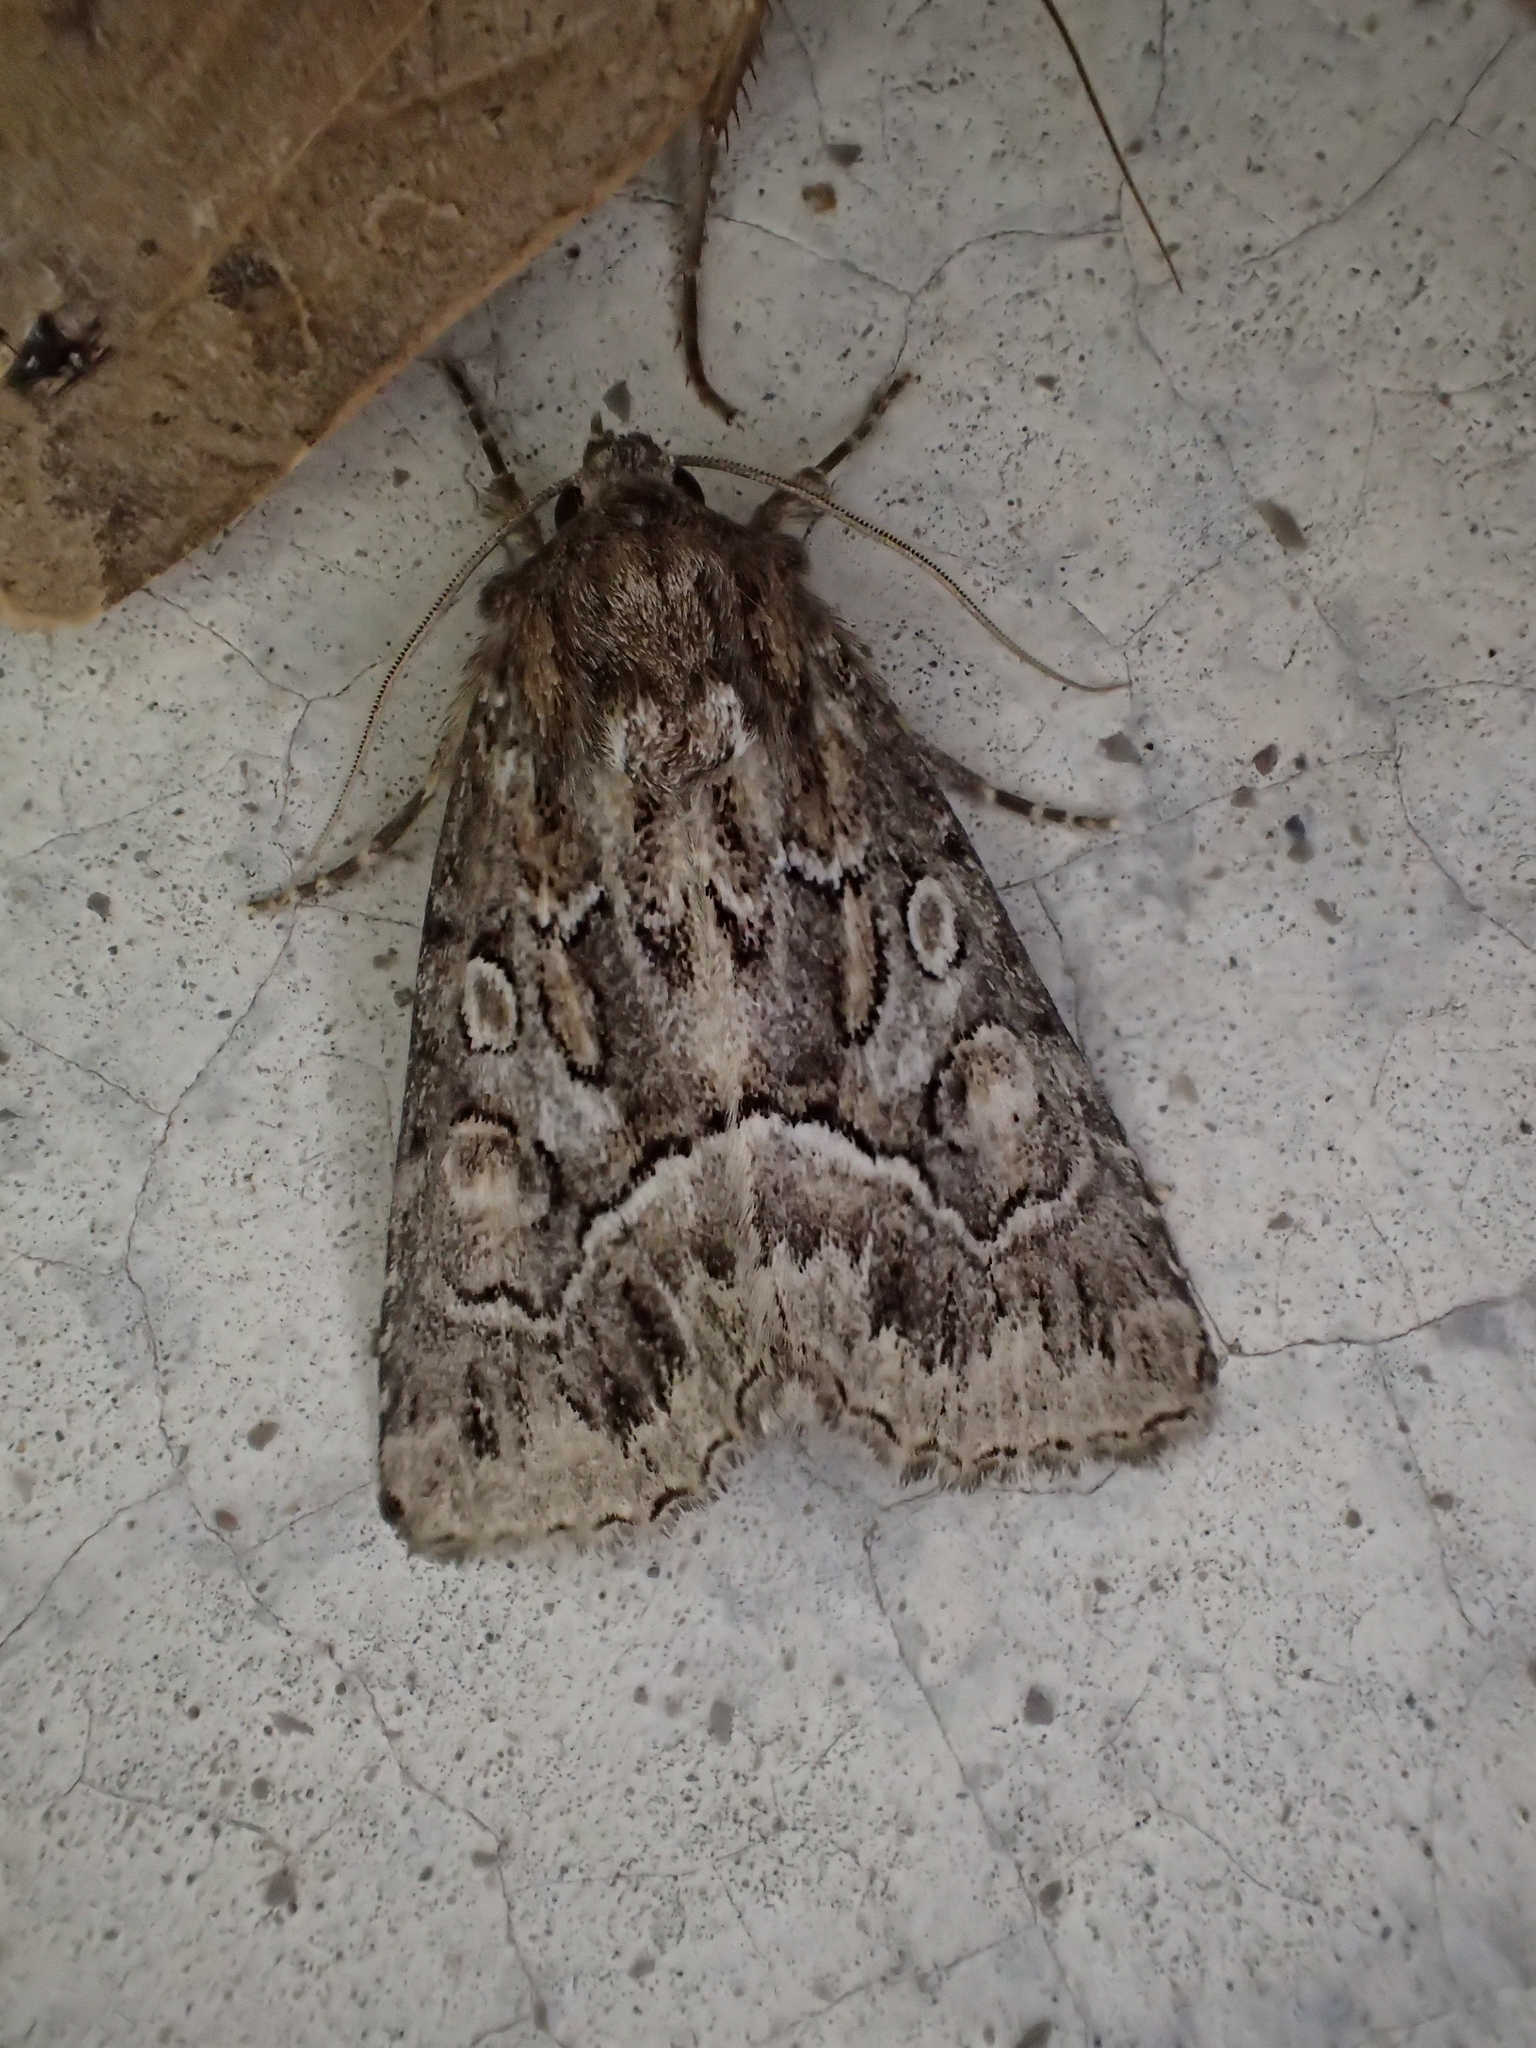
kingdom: Animalia
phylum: Arthropoda
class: Insecta
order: Lepidoptera
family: Noctuidae
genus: Thalpophila
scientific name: Thalpophila matura
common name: Straw underwing
